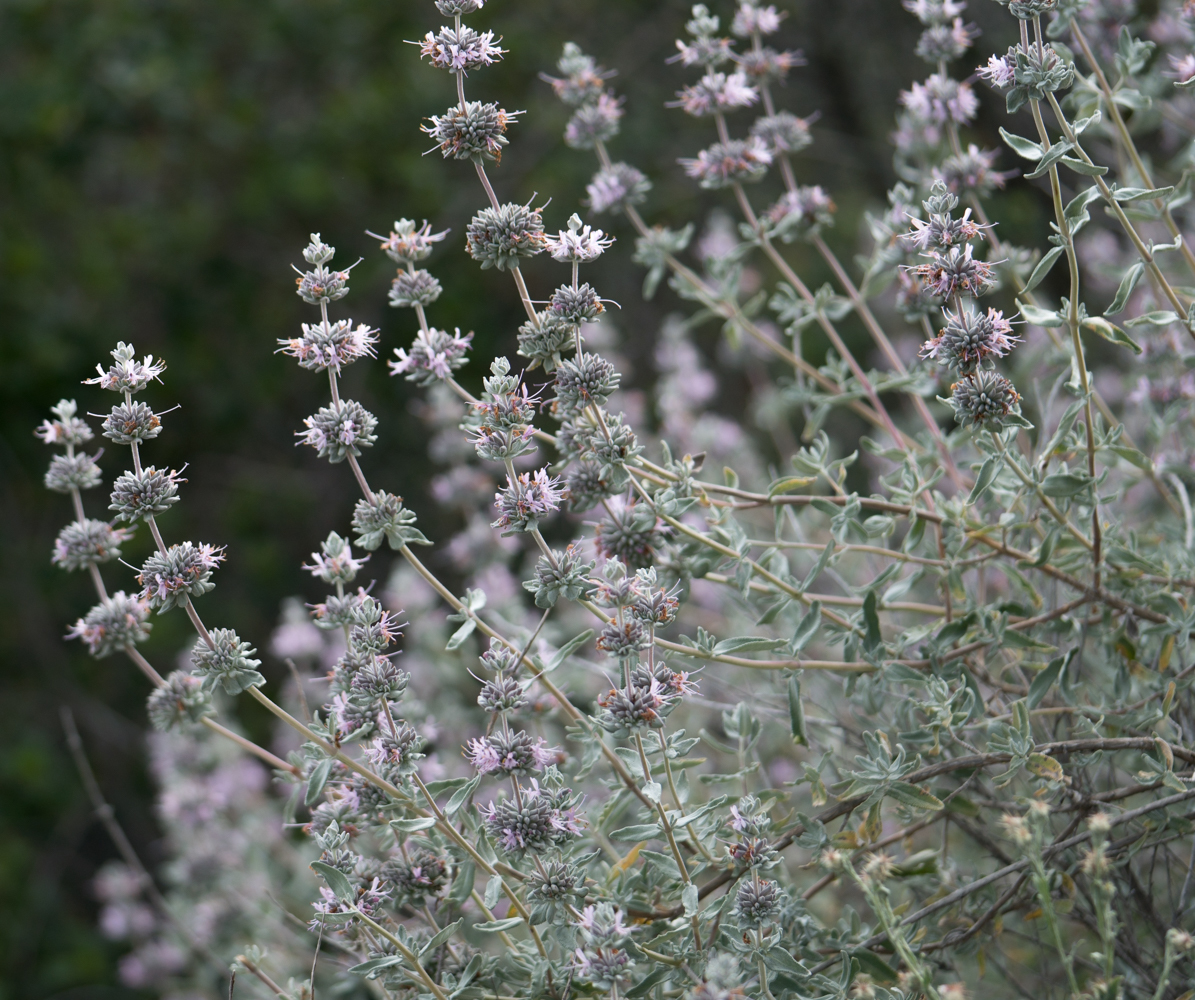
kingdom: Plantae
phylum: Tracheophyta
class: Magnoliopsida
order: Lamiales
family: Lamiaceae
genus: Salvia
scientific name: Salvia leucophylla
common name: Purple sage
